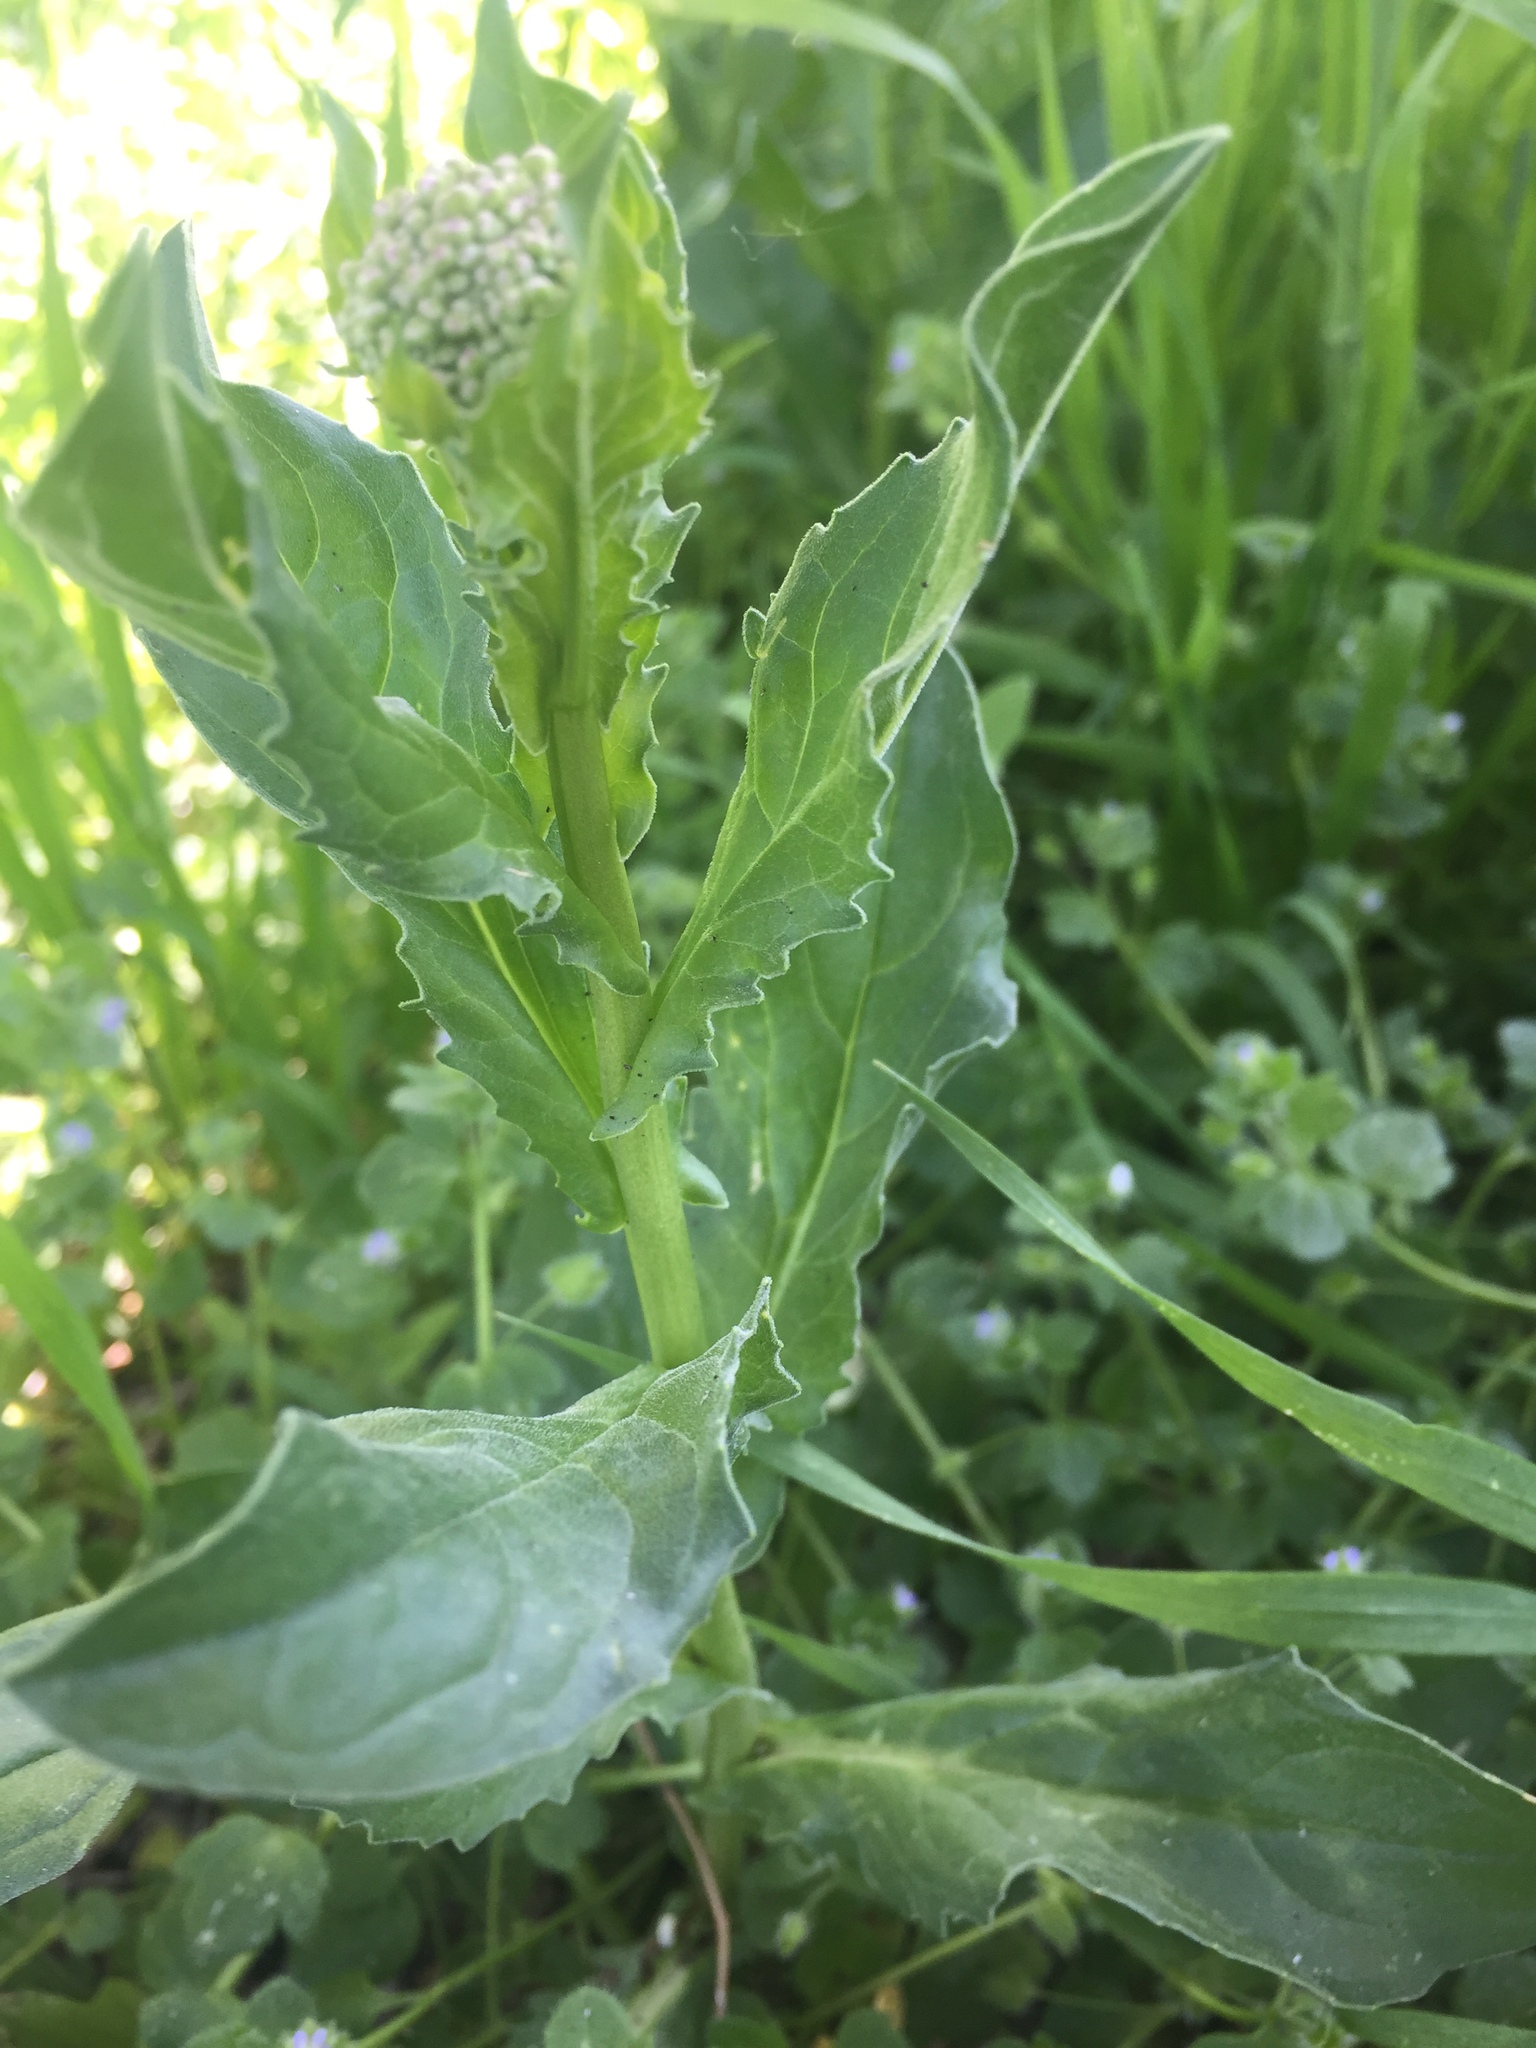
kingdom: Plantae
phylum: Tracheophyta
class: Magnoliopsida
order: Brassicales
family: Brassicaceae
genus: Lepidium
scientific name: Lepidium draba
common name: Hoary cress
